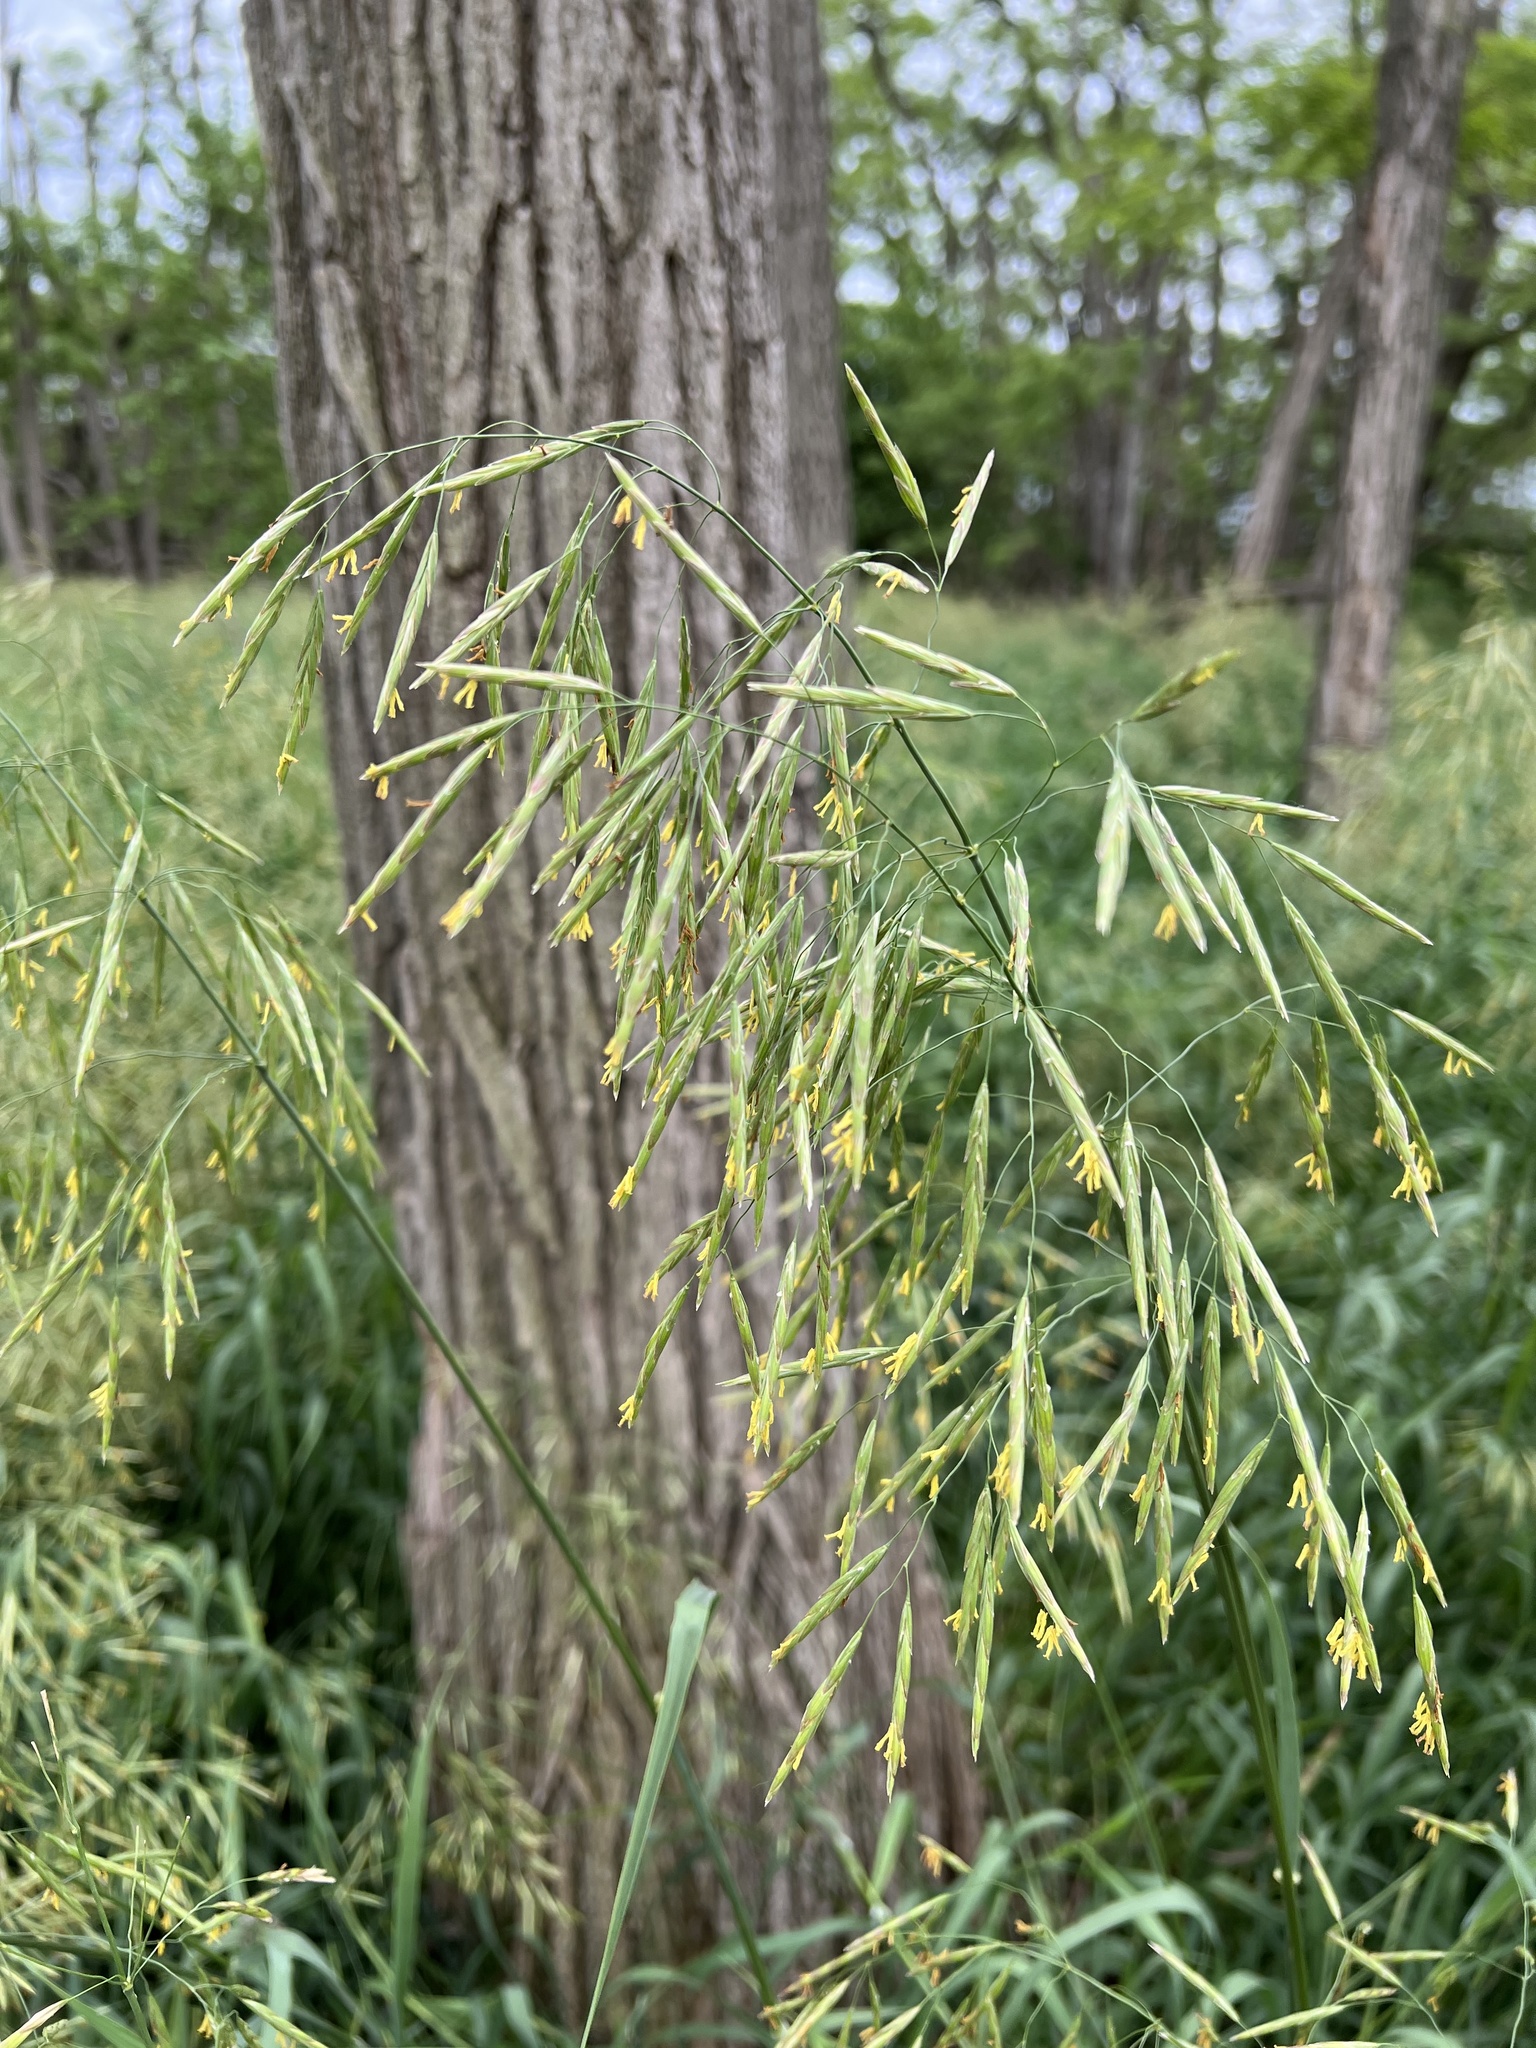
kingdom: Plantae
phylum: Tracheophyta
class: Liliopsida
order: Poales
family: Poaceae
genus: Bromus
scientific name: Bromus inermis
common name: Smooth brome
